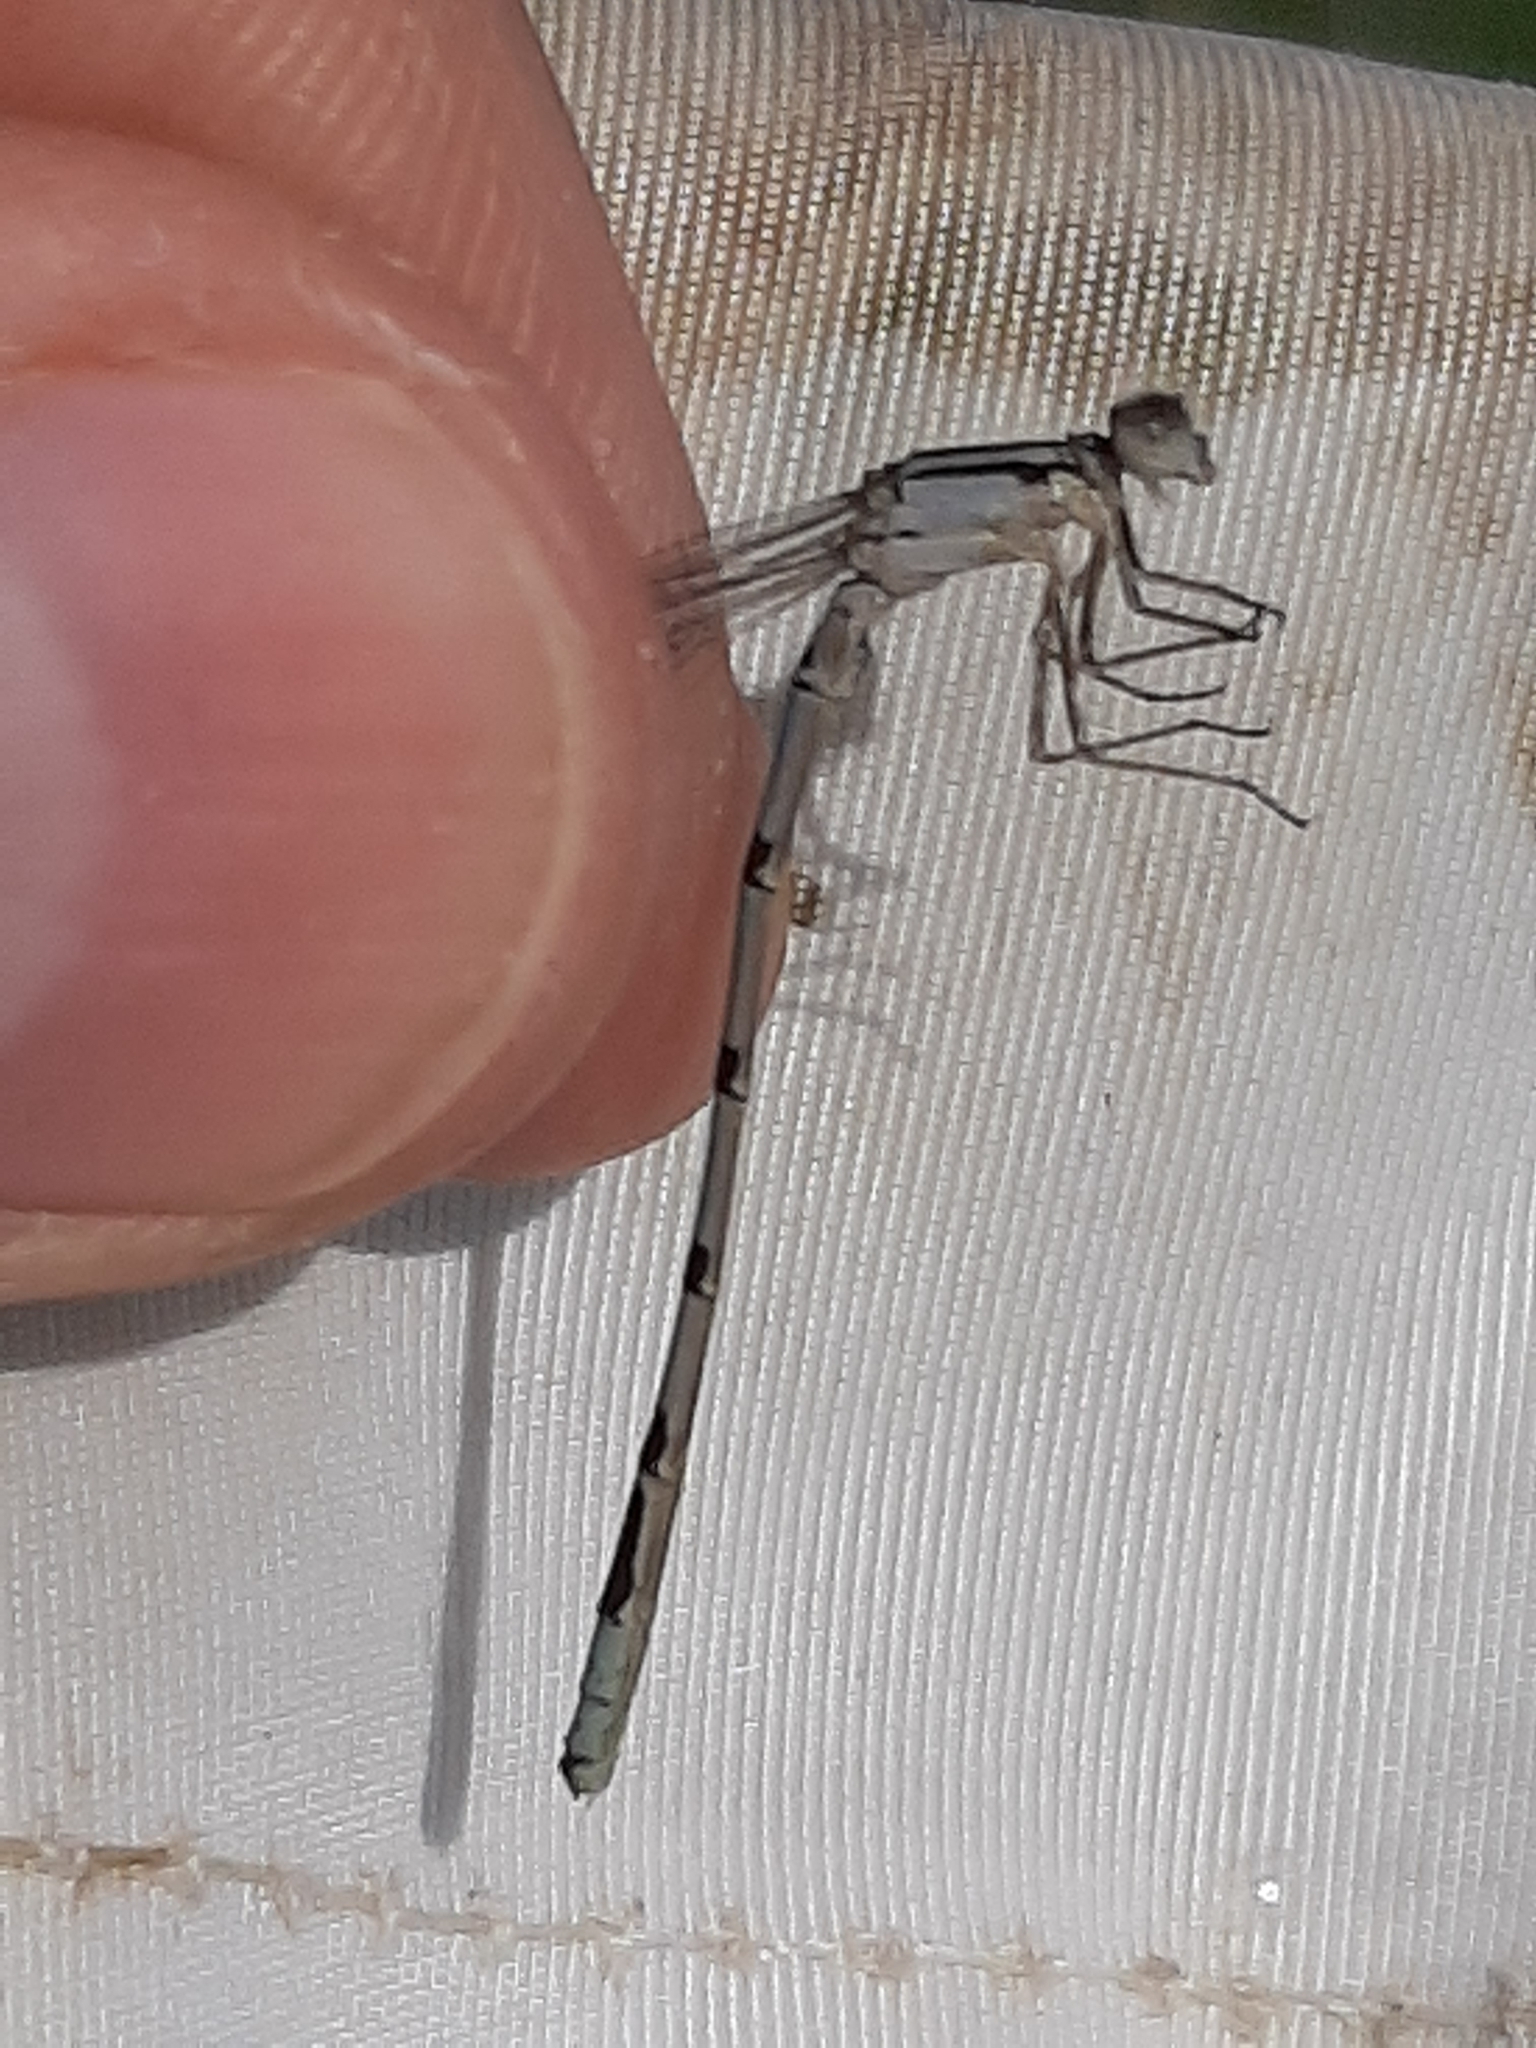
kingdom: Animalia
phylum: Arthropoda
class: Insecta
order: Odonata
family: Coenagrionidae
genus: Enallagma
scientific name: Enallagma annexum
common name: Northern bluet
